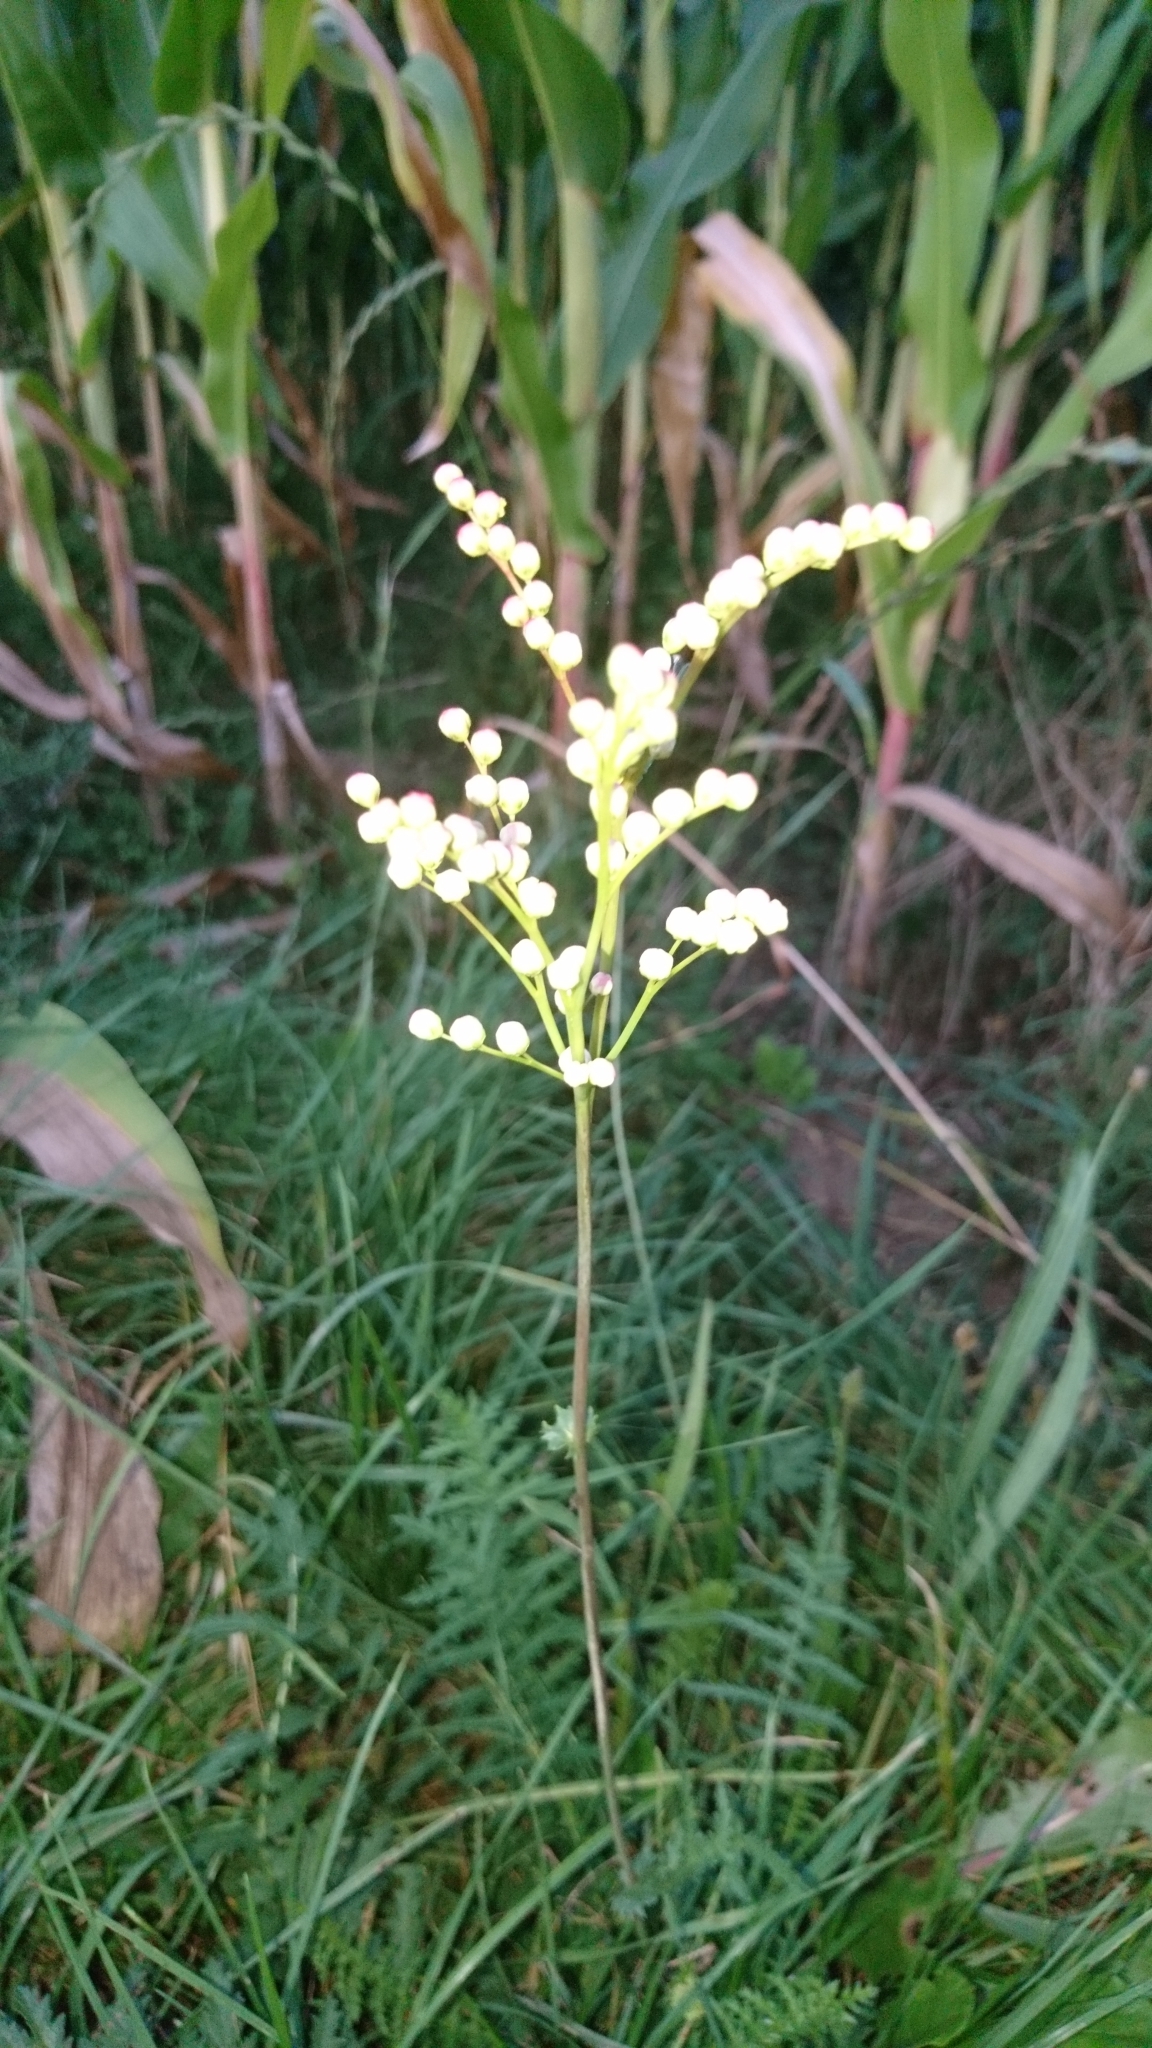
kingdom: Plantae
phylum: Tracheophyta
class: Magnoliopsida
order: Rosales
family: Rosaceae
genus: Filipendula
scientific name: Filipendula vulgaris
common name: Dropwort
